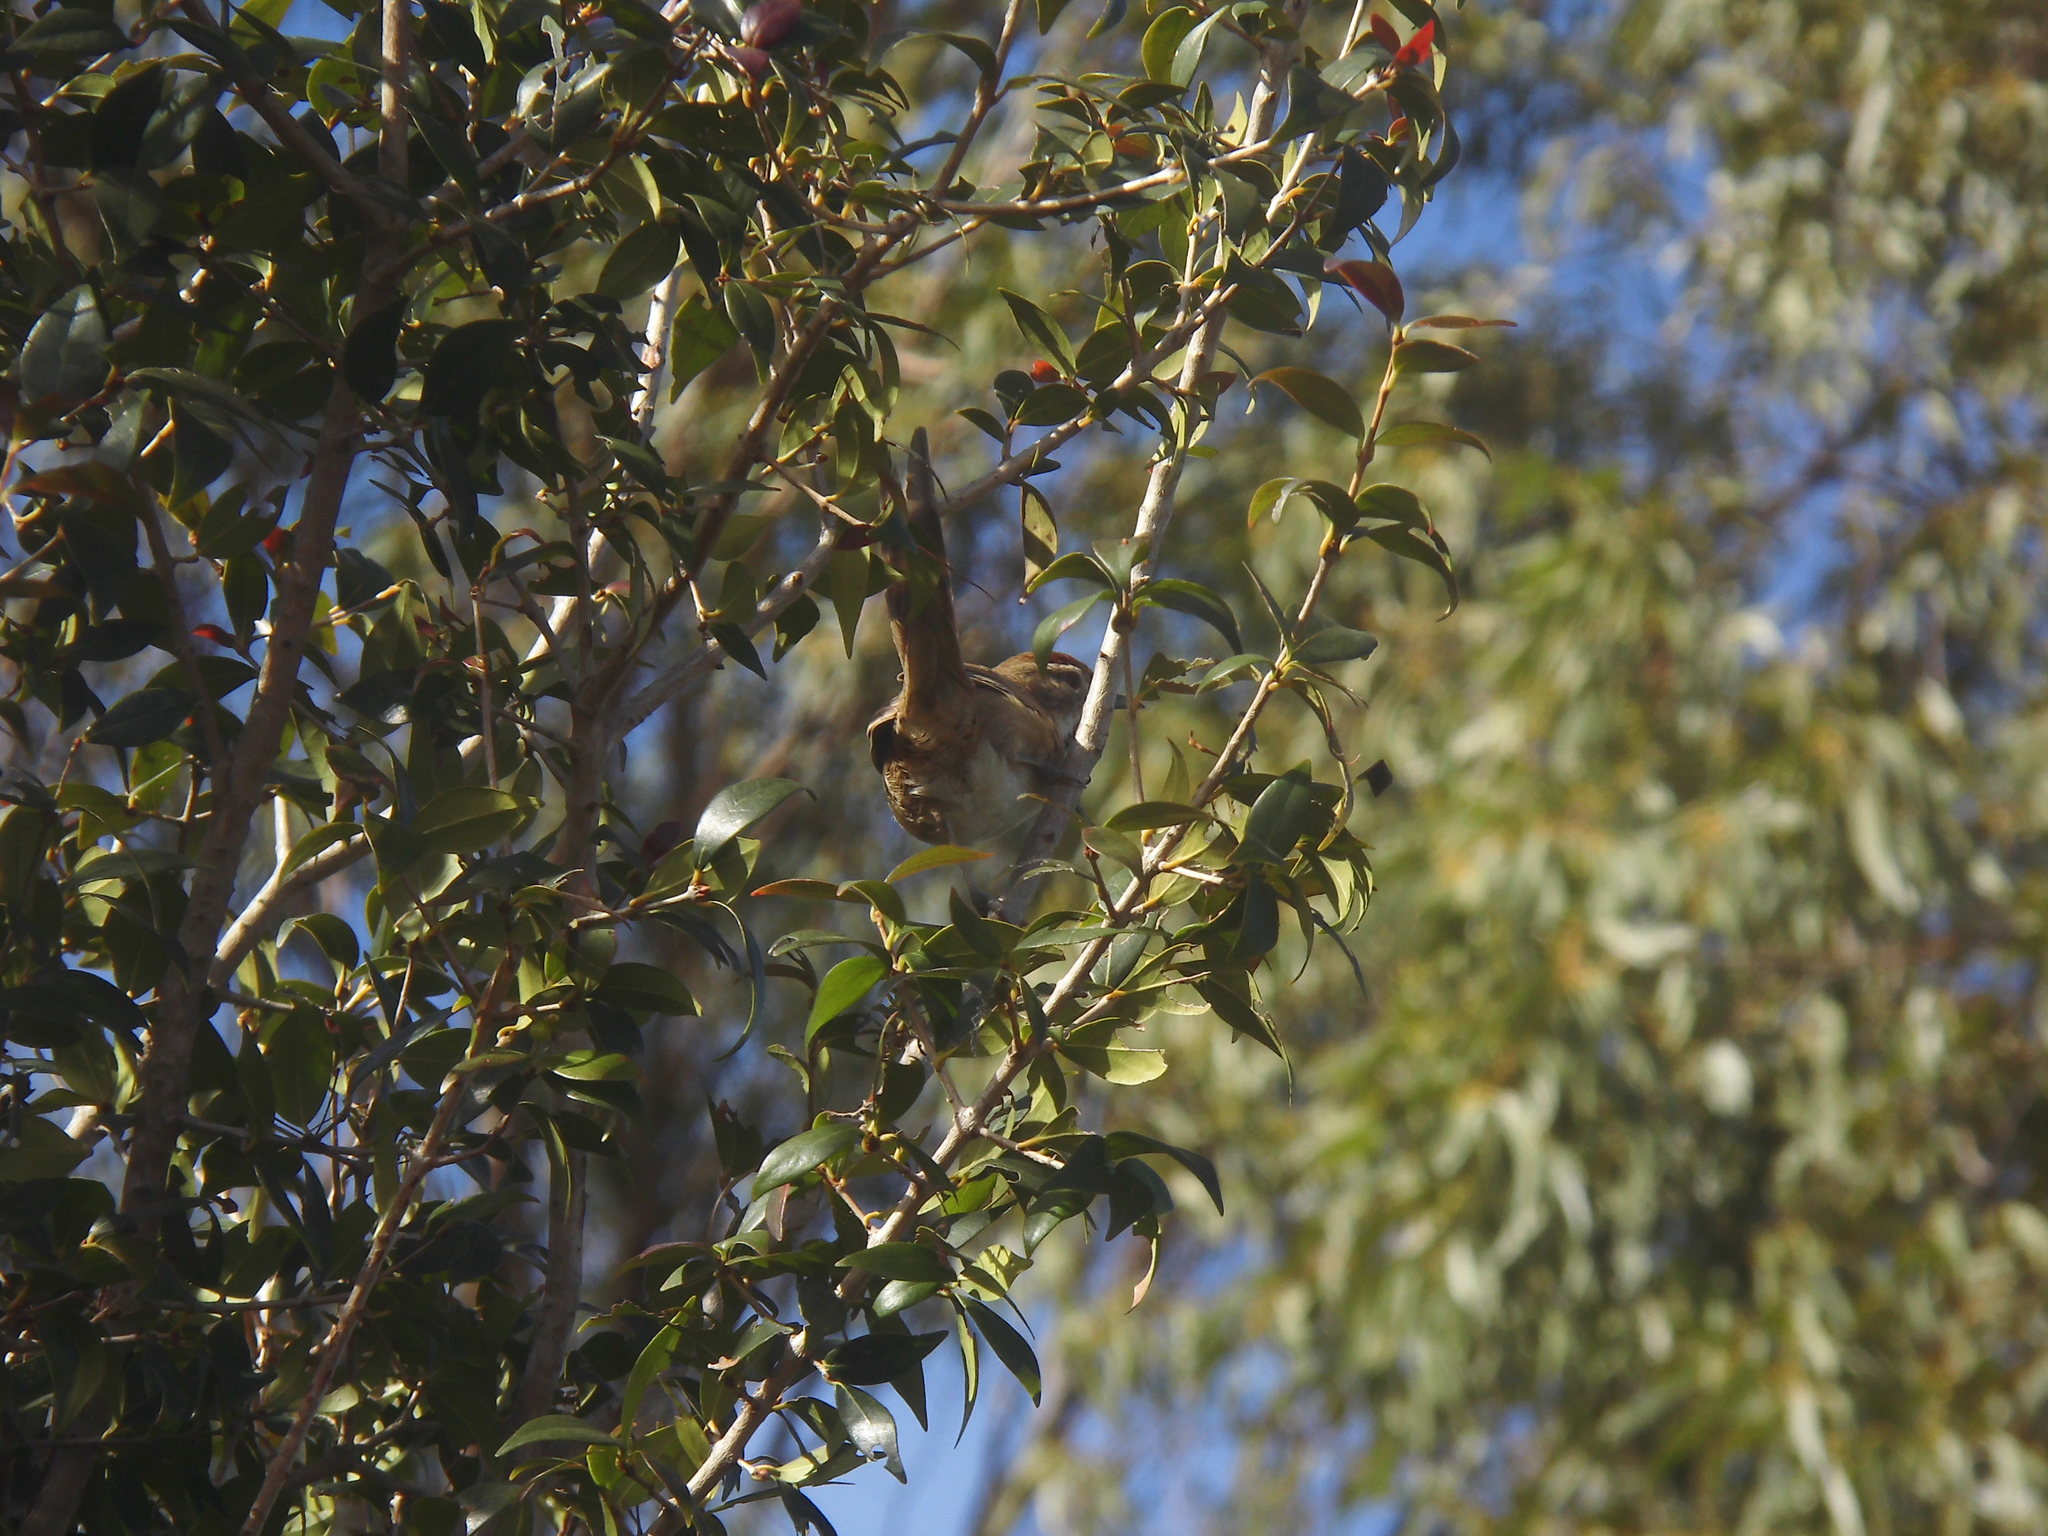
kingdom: Animalia
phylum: Chordata
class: Aves
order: Passeriformes
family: Furnariidae
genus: Schoeniophylax
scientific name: Schoeniophylax phryganophilus
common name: Chotoy spinetail
